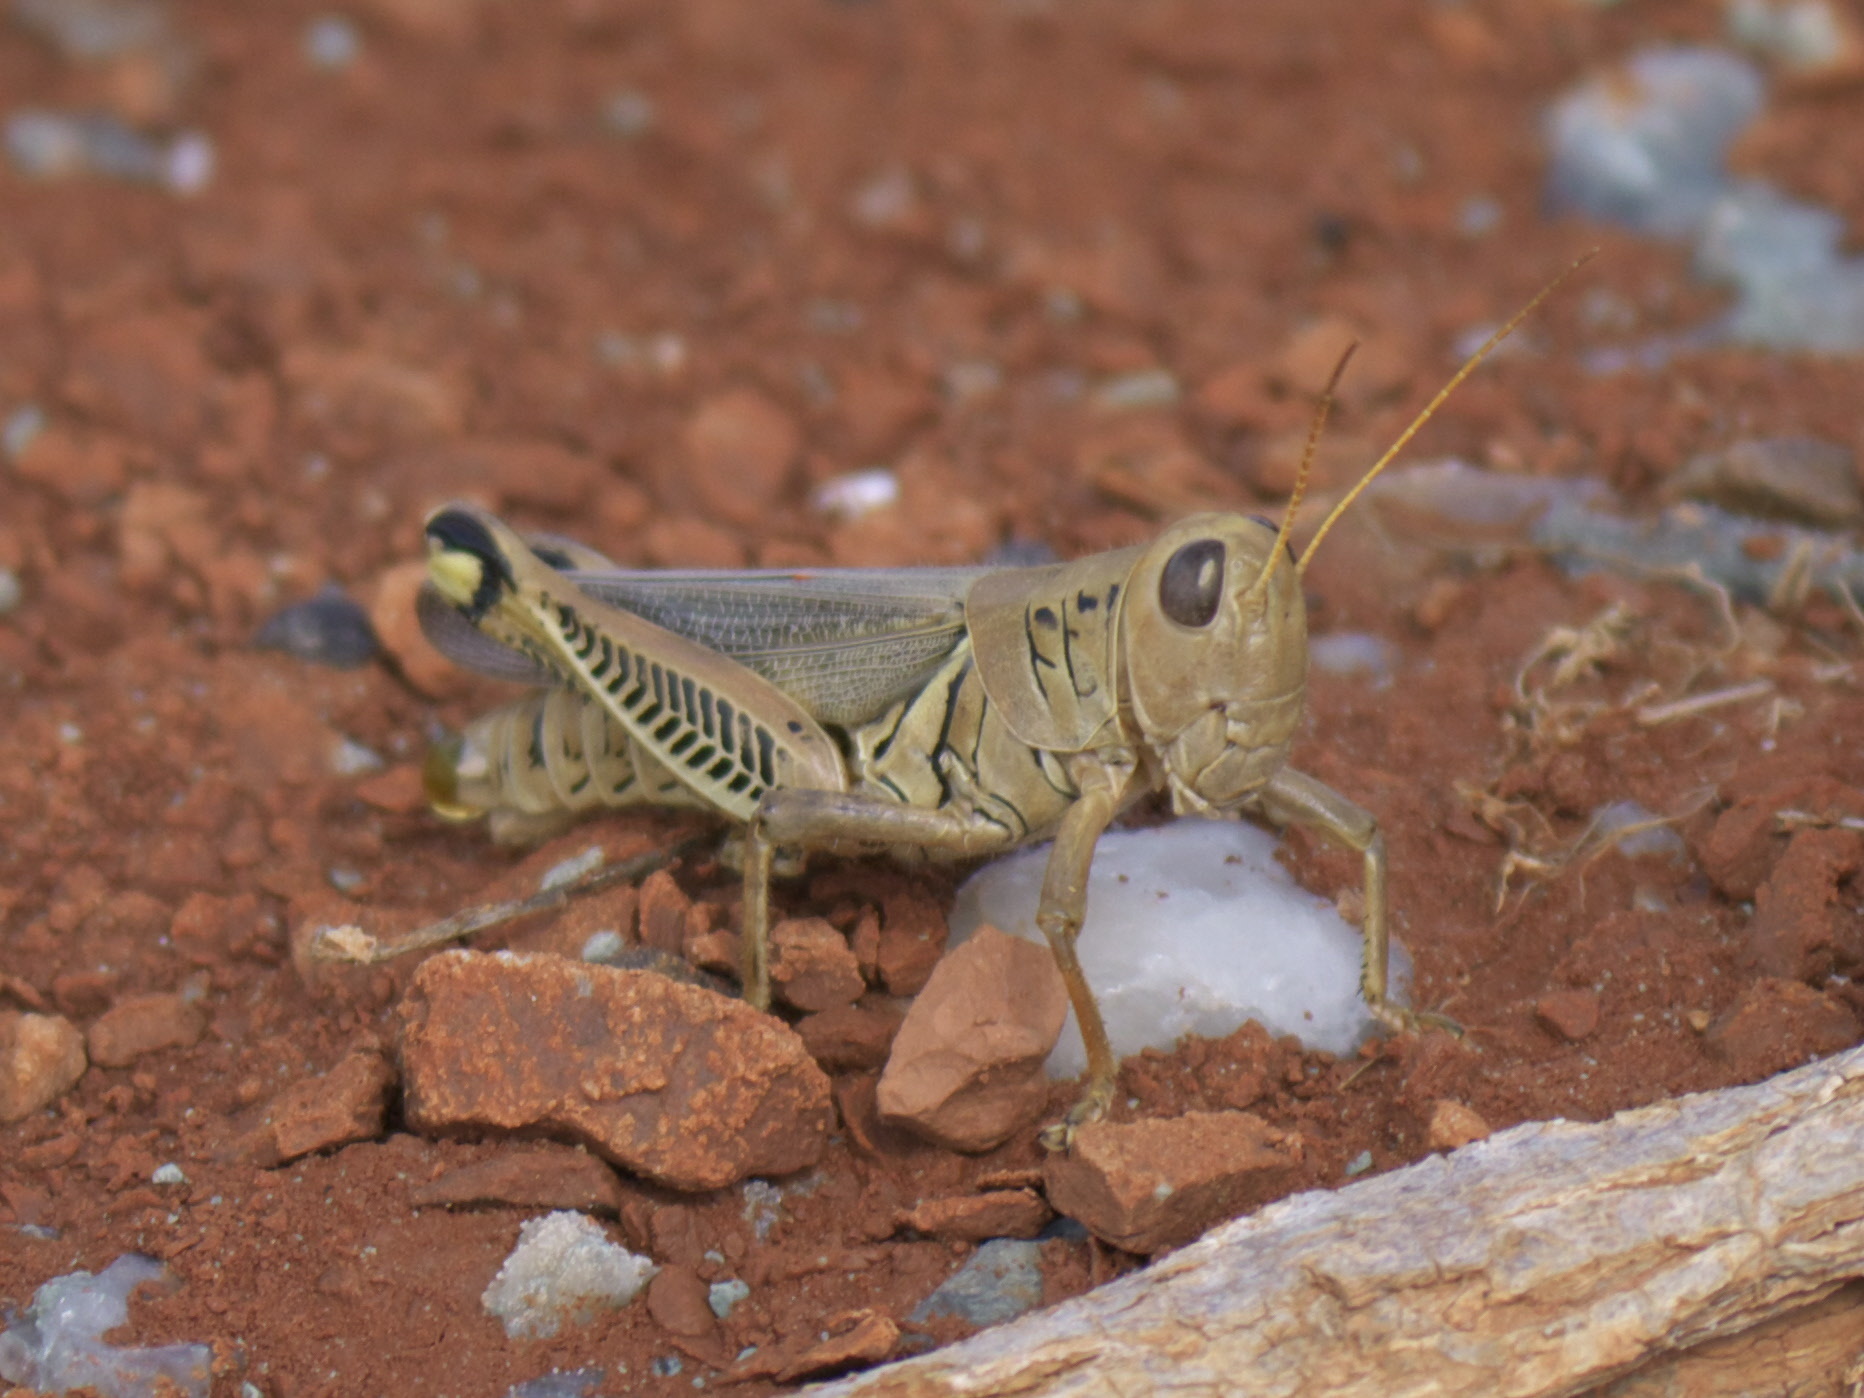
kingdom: Animalia
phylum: Arthropoda
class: Insecta
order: Orthoptera
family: Acrididae
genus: Melanoplus
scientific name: Melanoplus differentialis
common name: Differential grasshopper
